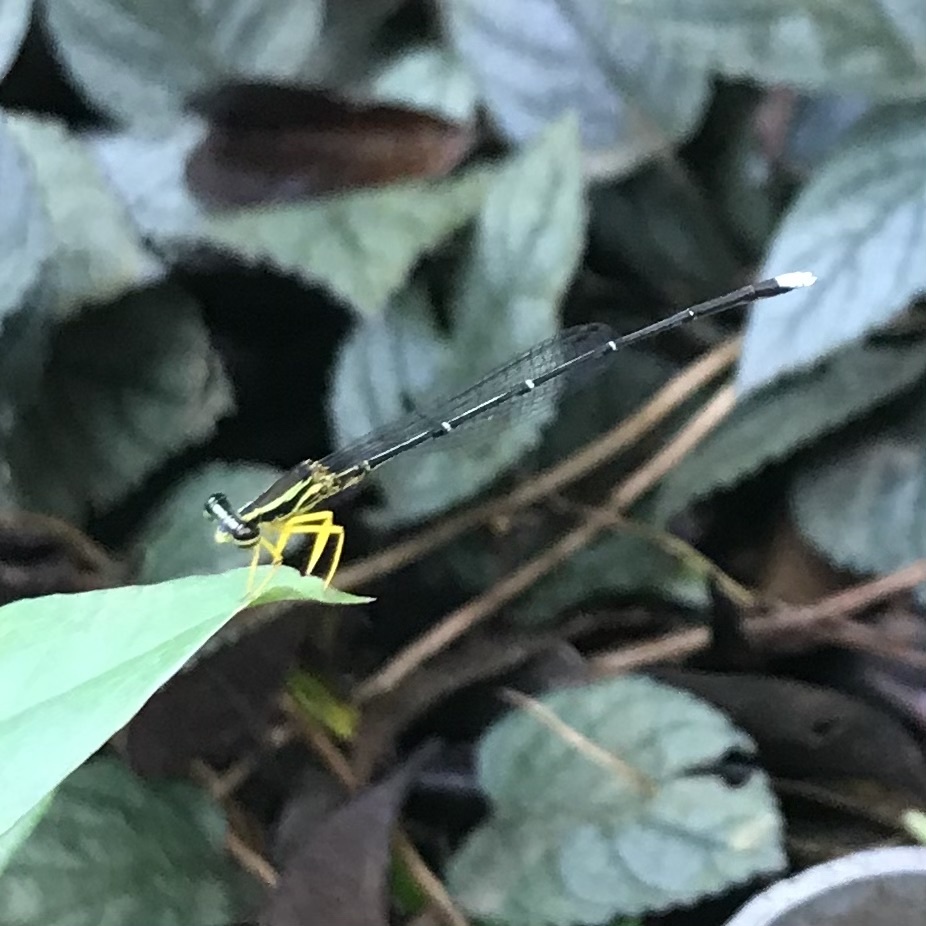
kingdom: Animalia
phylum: Arthropoda
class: Insecta
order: Odonata
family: Platycnemididae
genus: Copera
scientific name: Copera marginipes
